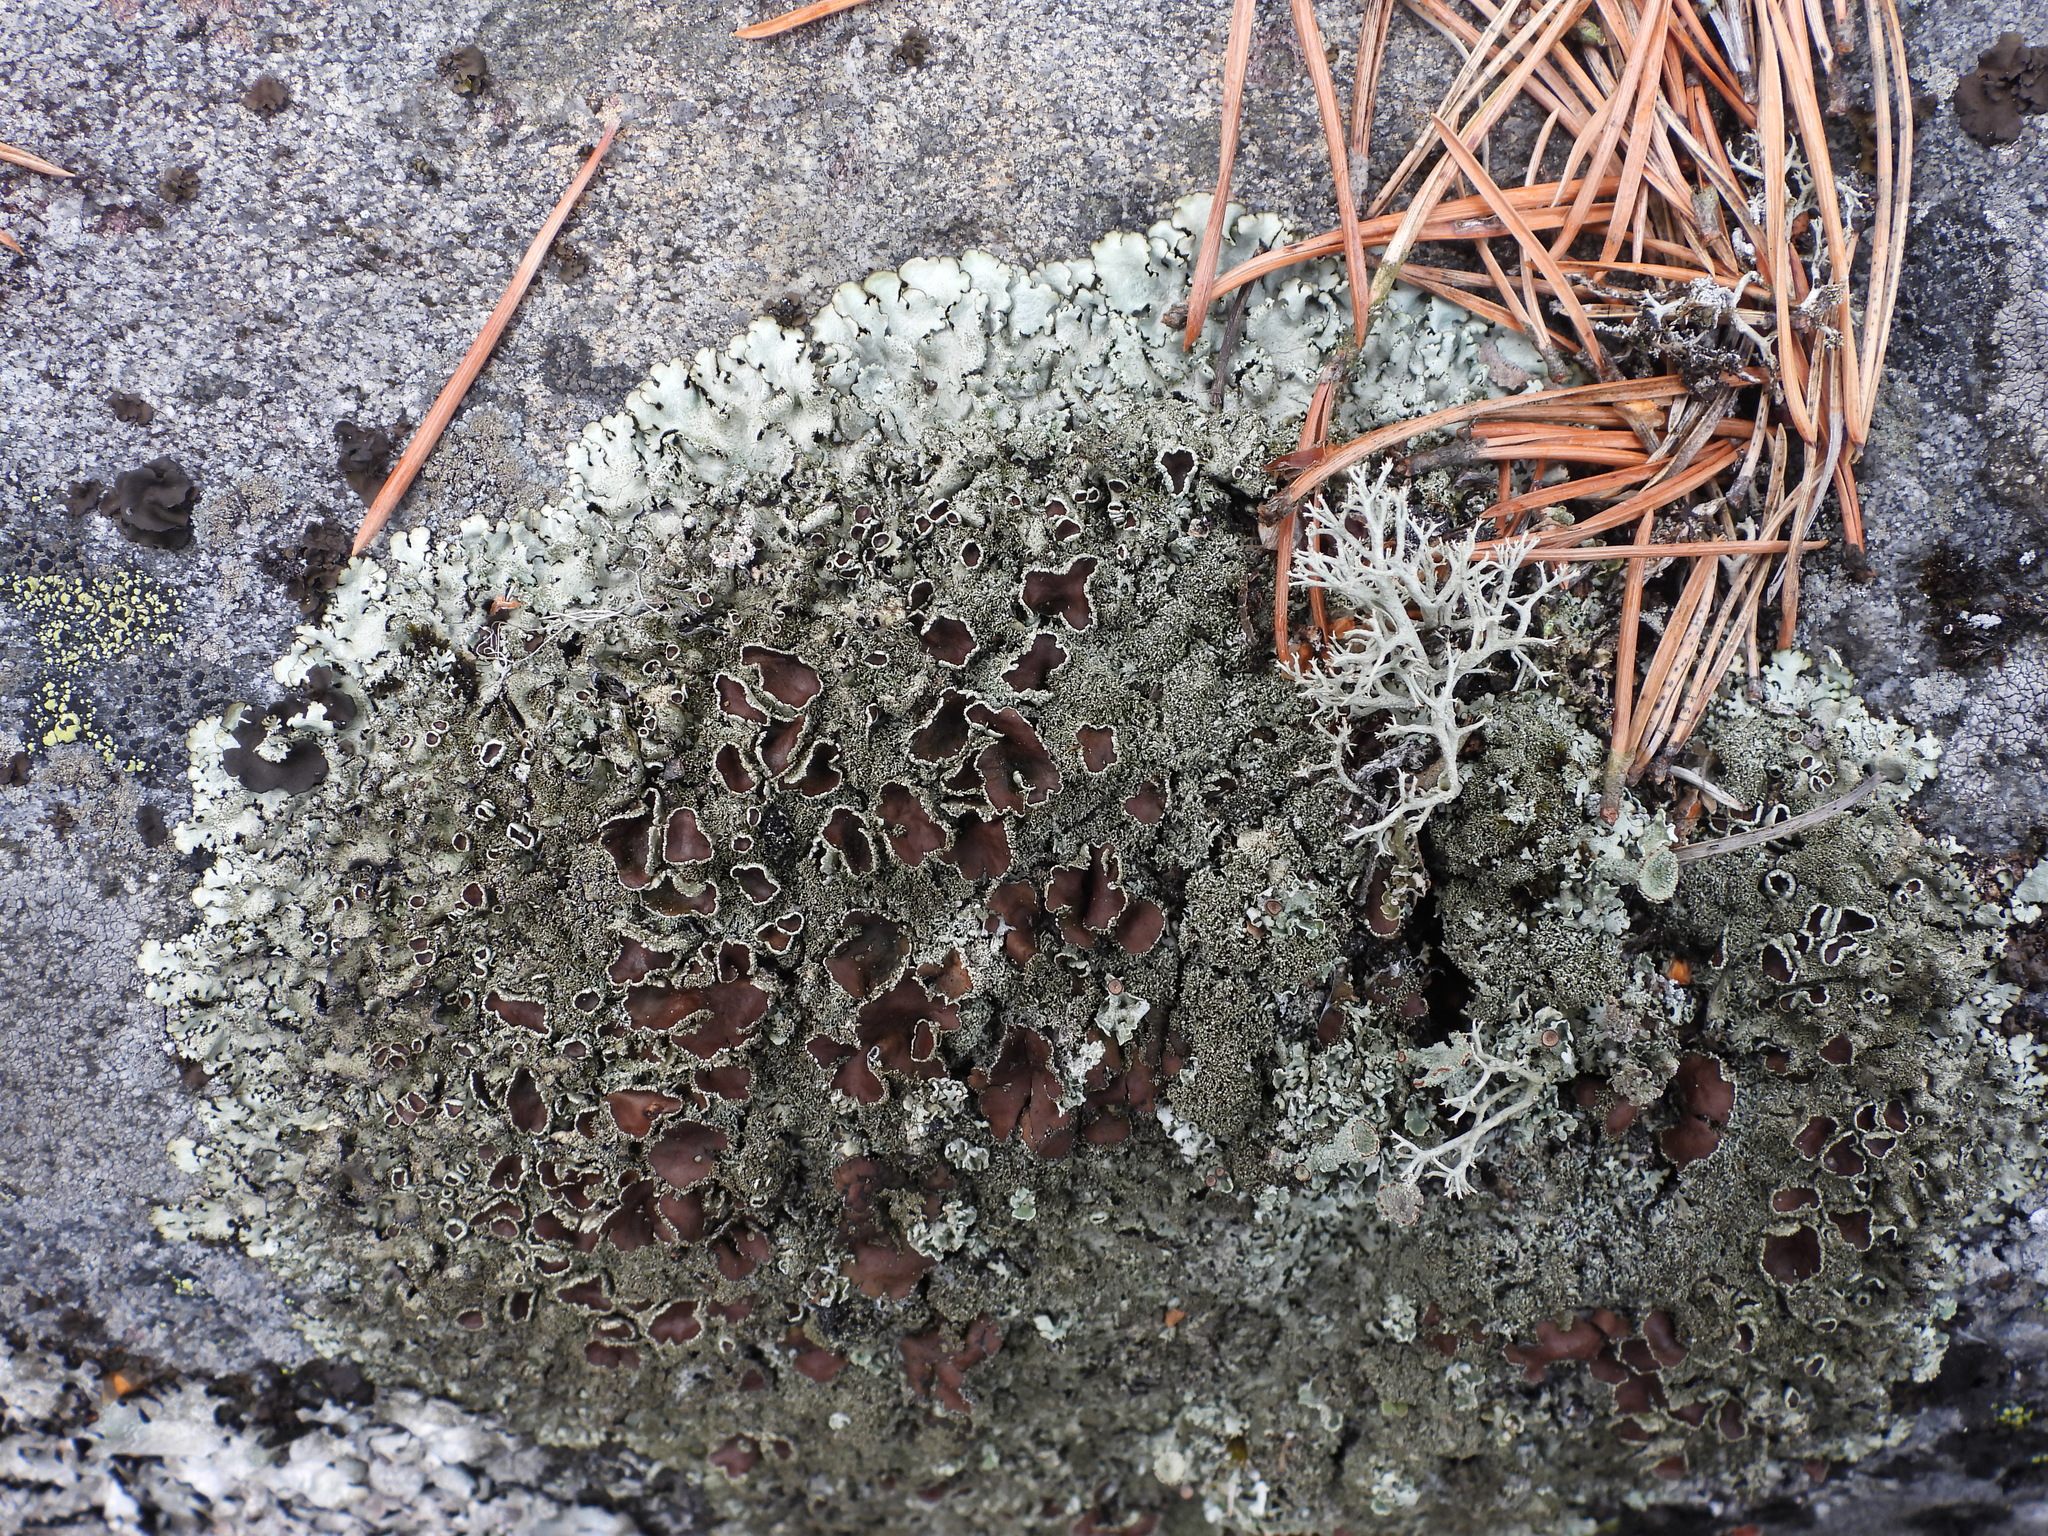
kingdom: Fungi
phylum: Ascomycota
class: Lecanoromycetes
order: Lecanorales
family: Parmeliaceae
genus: Xanthoparmelia
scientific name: Xanthoparmelia conspersa
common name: Peppered rock shield
